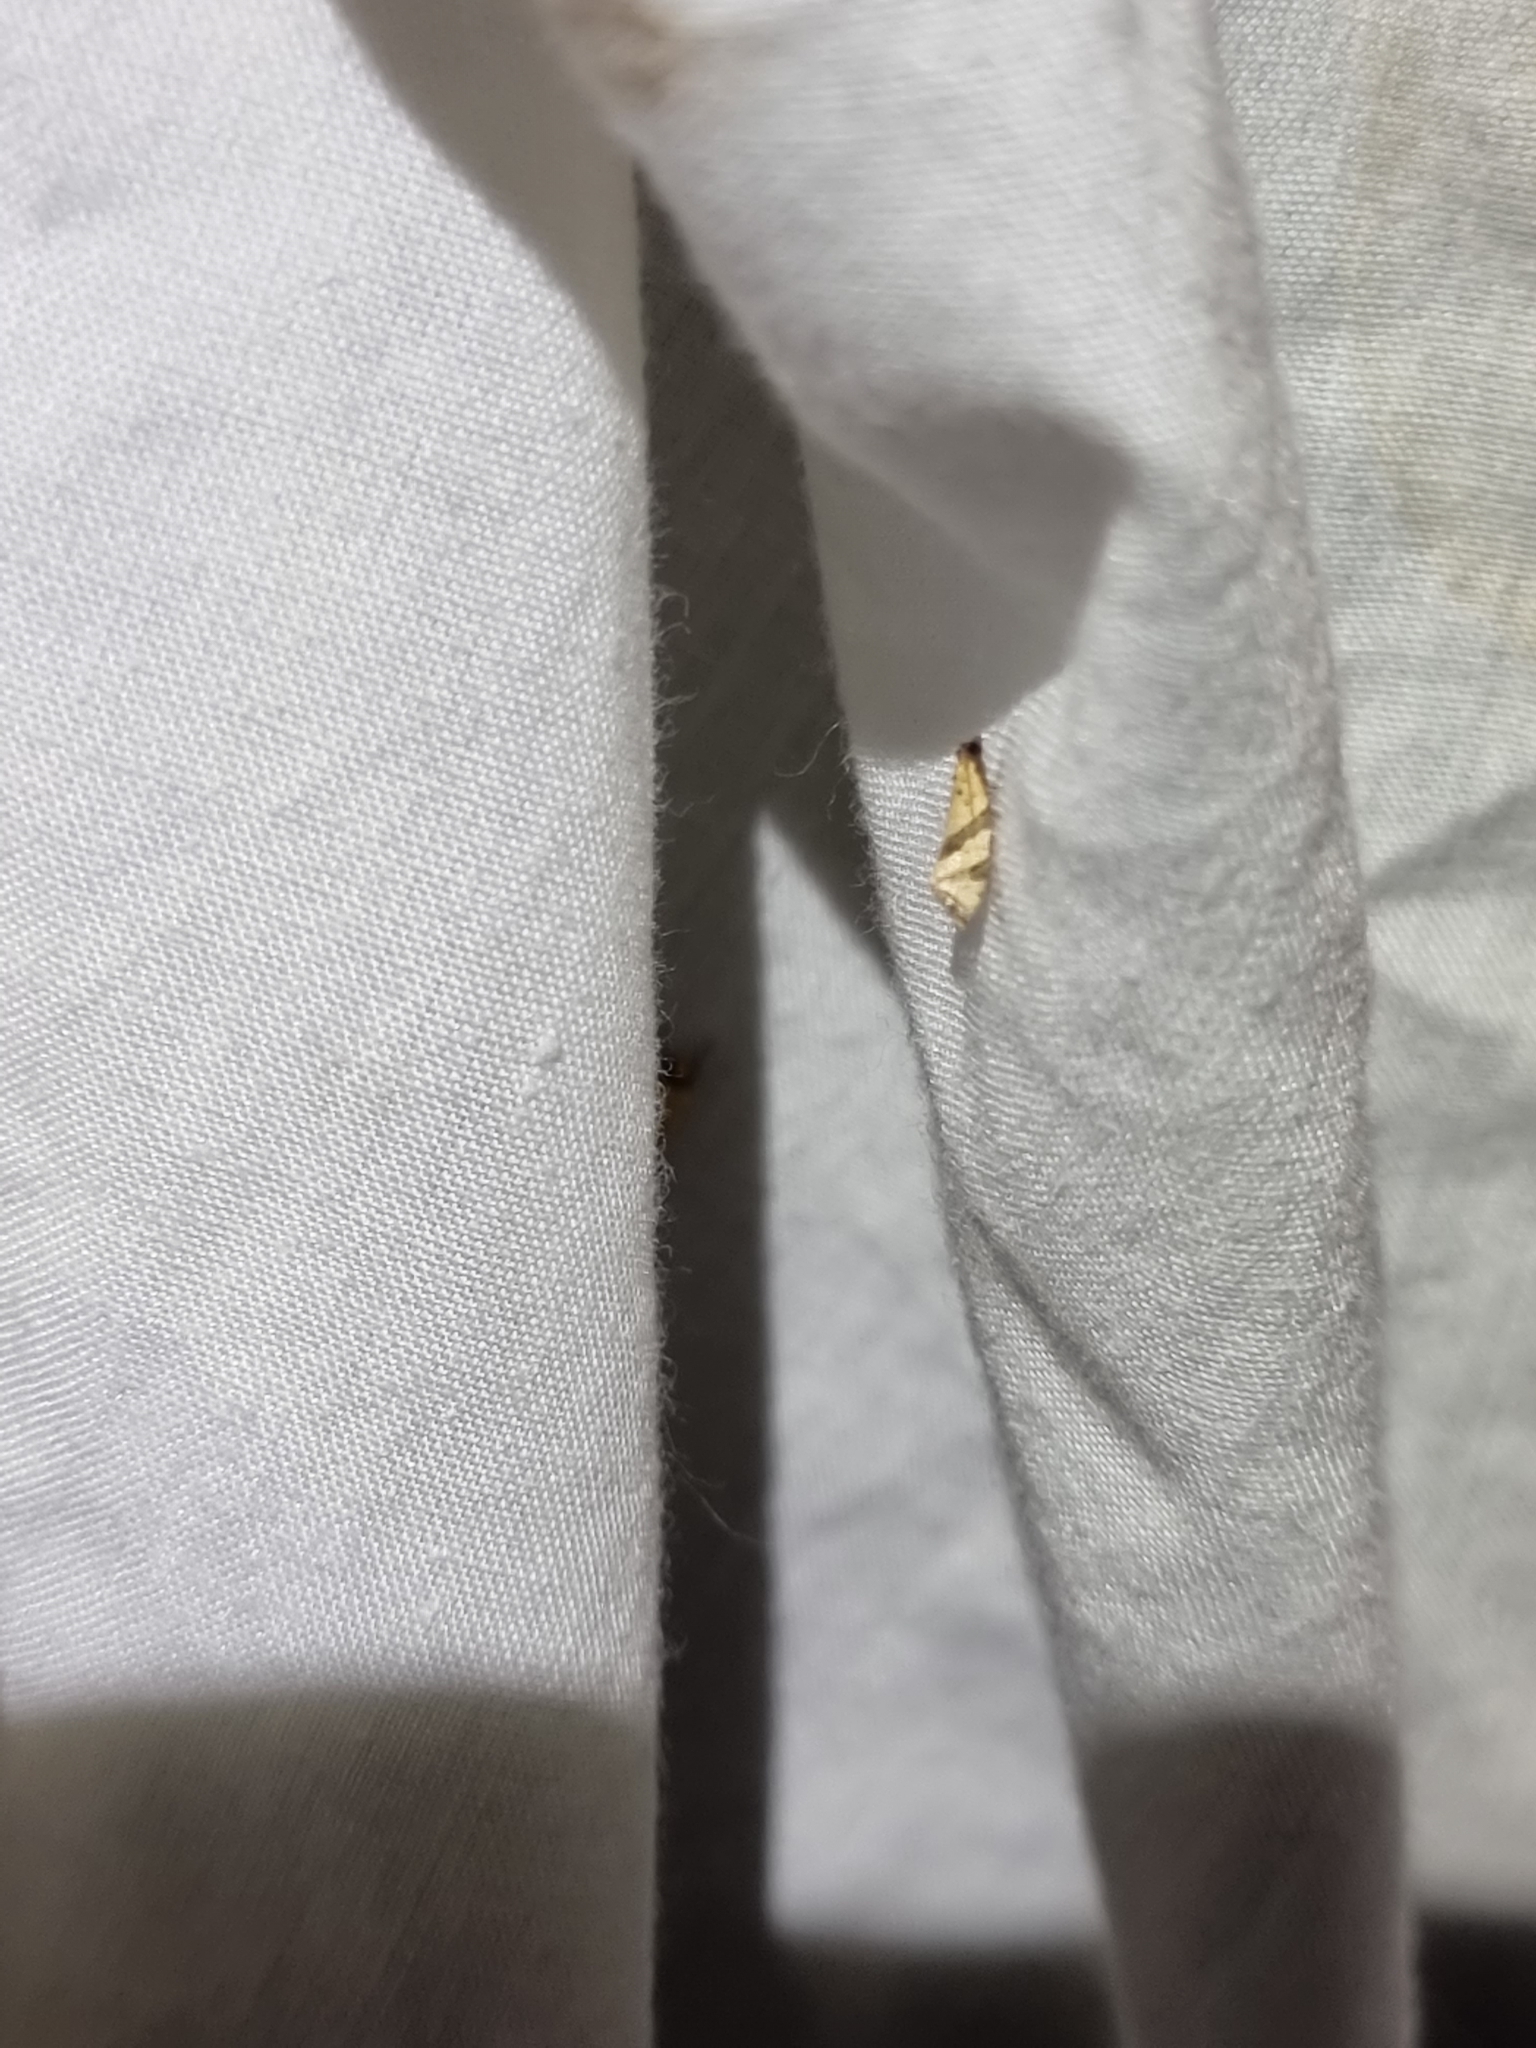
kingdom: Animalia
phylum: Arthropoda
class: Insecta
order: Lepidoptera
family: Tortricidae
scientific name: Tortricidae
